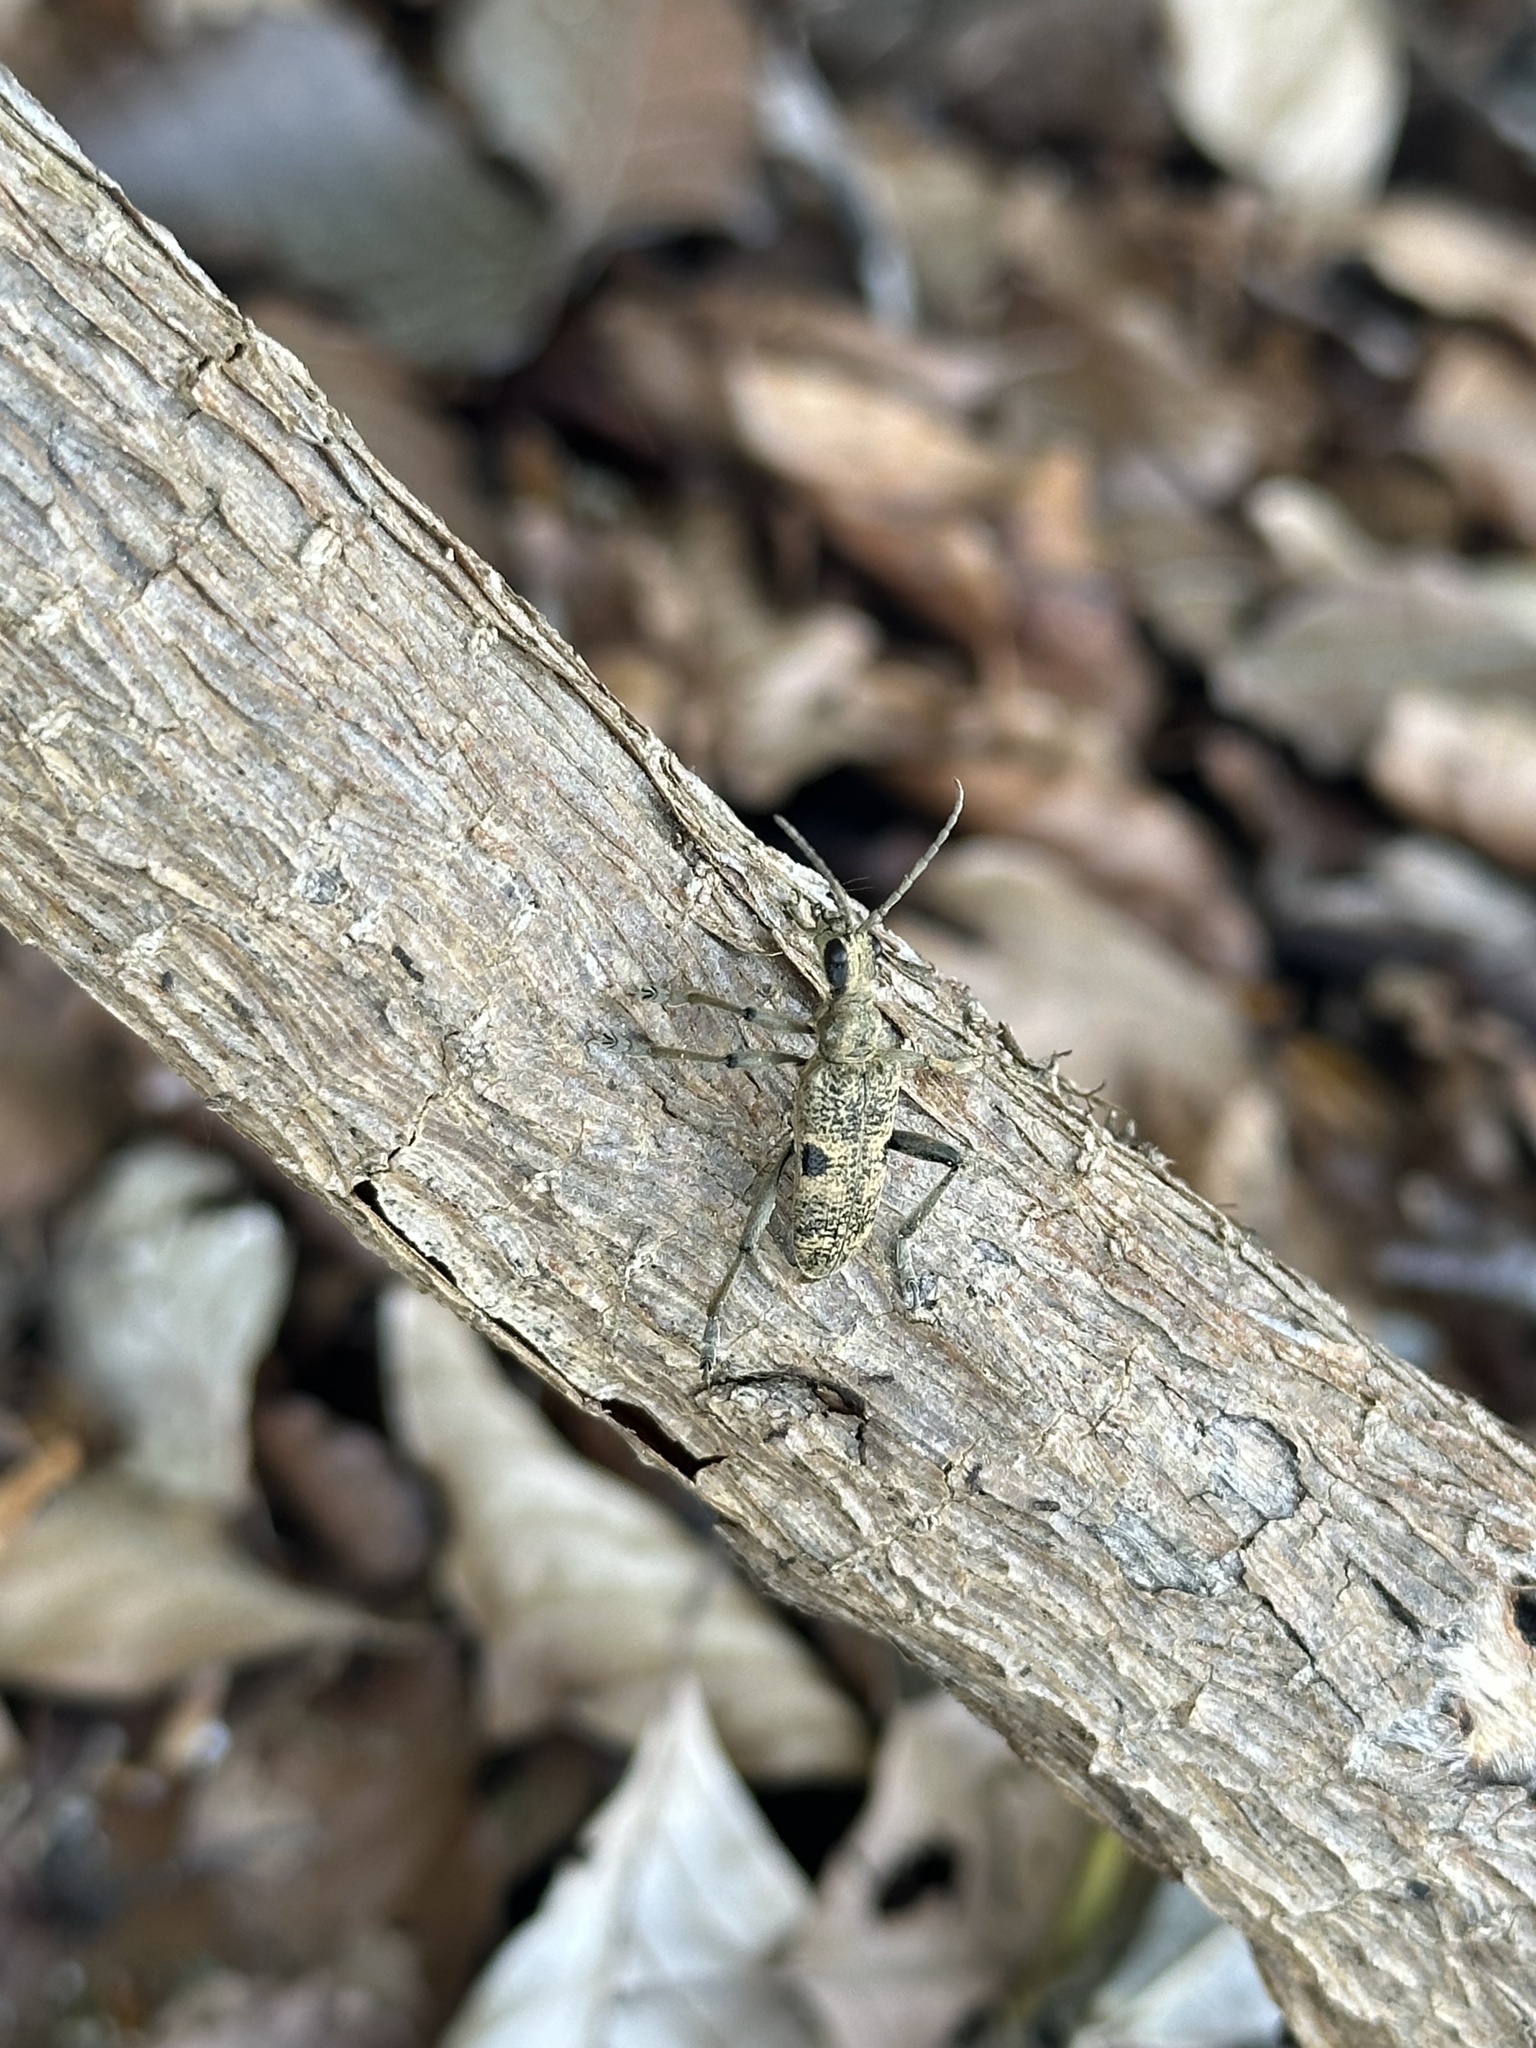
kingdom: Animalia
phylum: Arthropoda
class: Insecta
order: Coleoptera
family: Cerambycidae
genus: Rhagium
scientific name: Rhagium mordax
